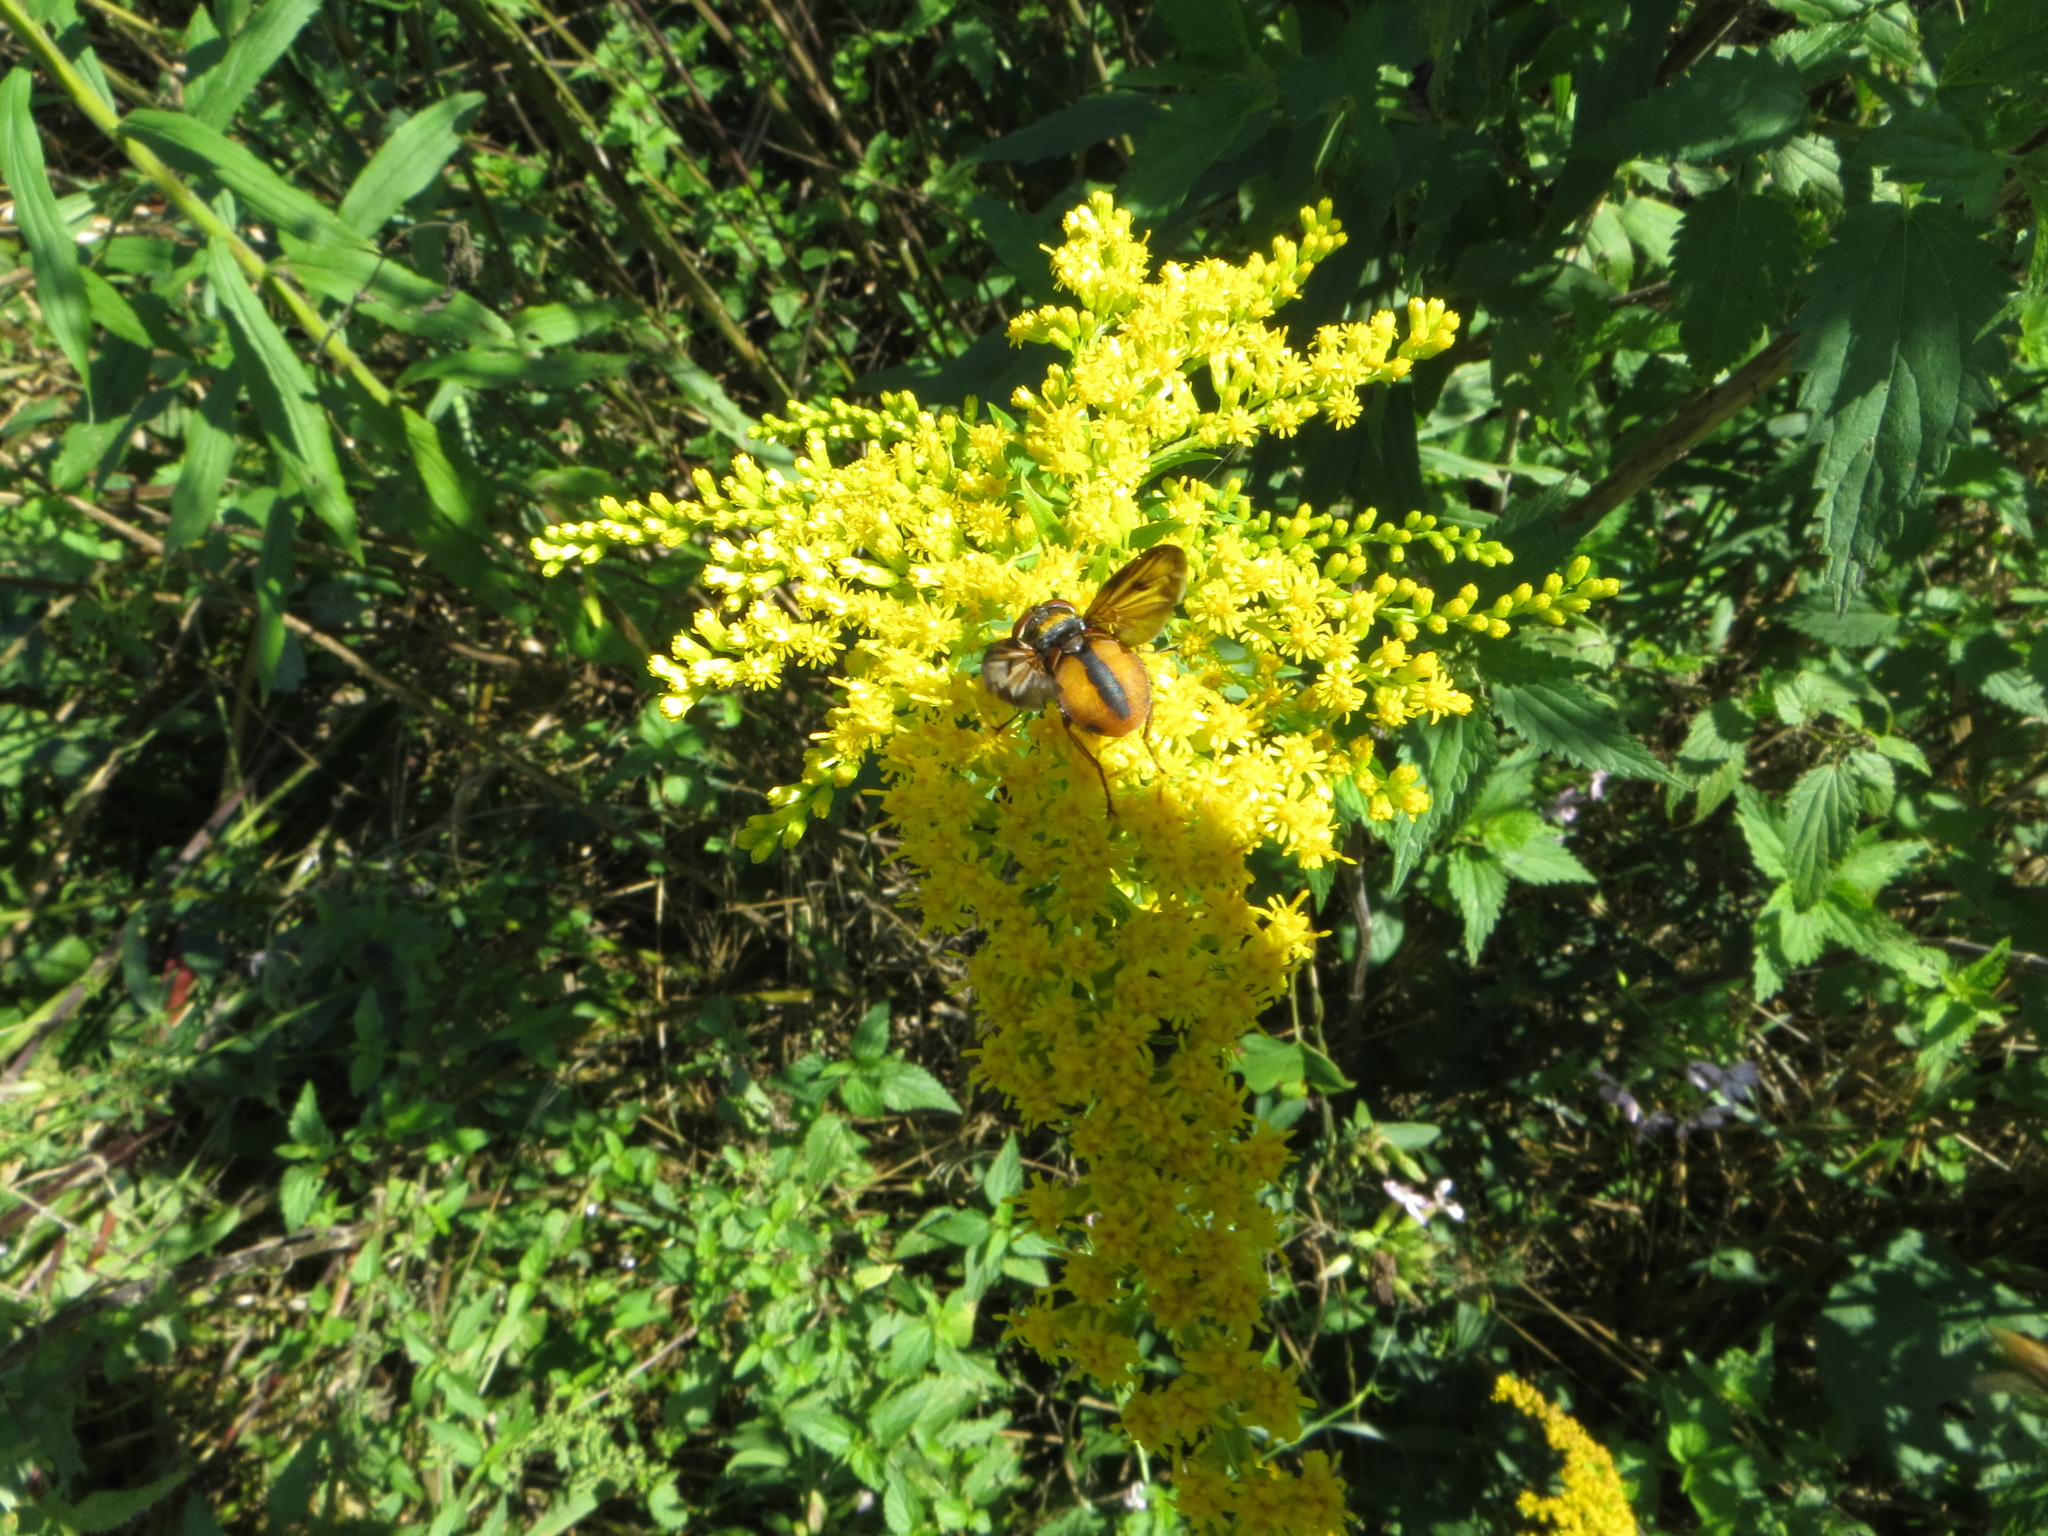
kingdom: Animalia
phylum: Arthropoda
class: Insecta
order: Diptera
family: Tachinidae
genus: Ectophasia
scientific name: Ectophasia crassipennis
